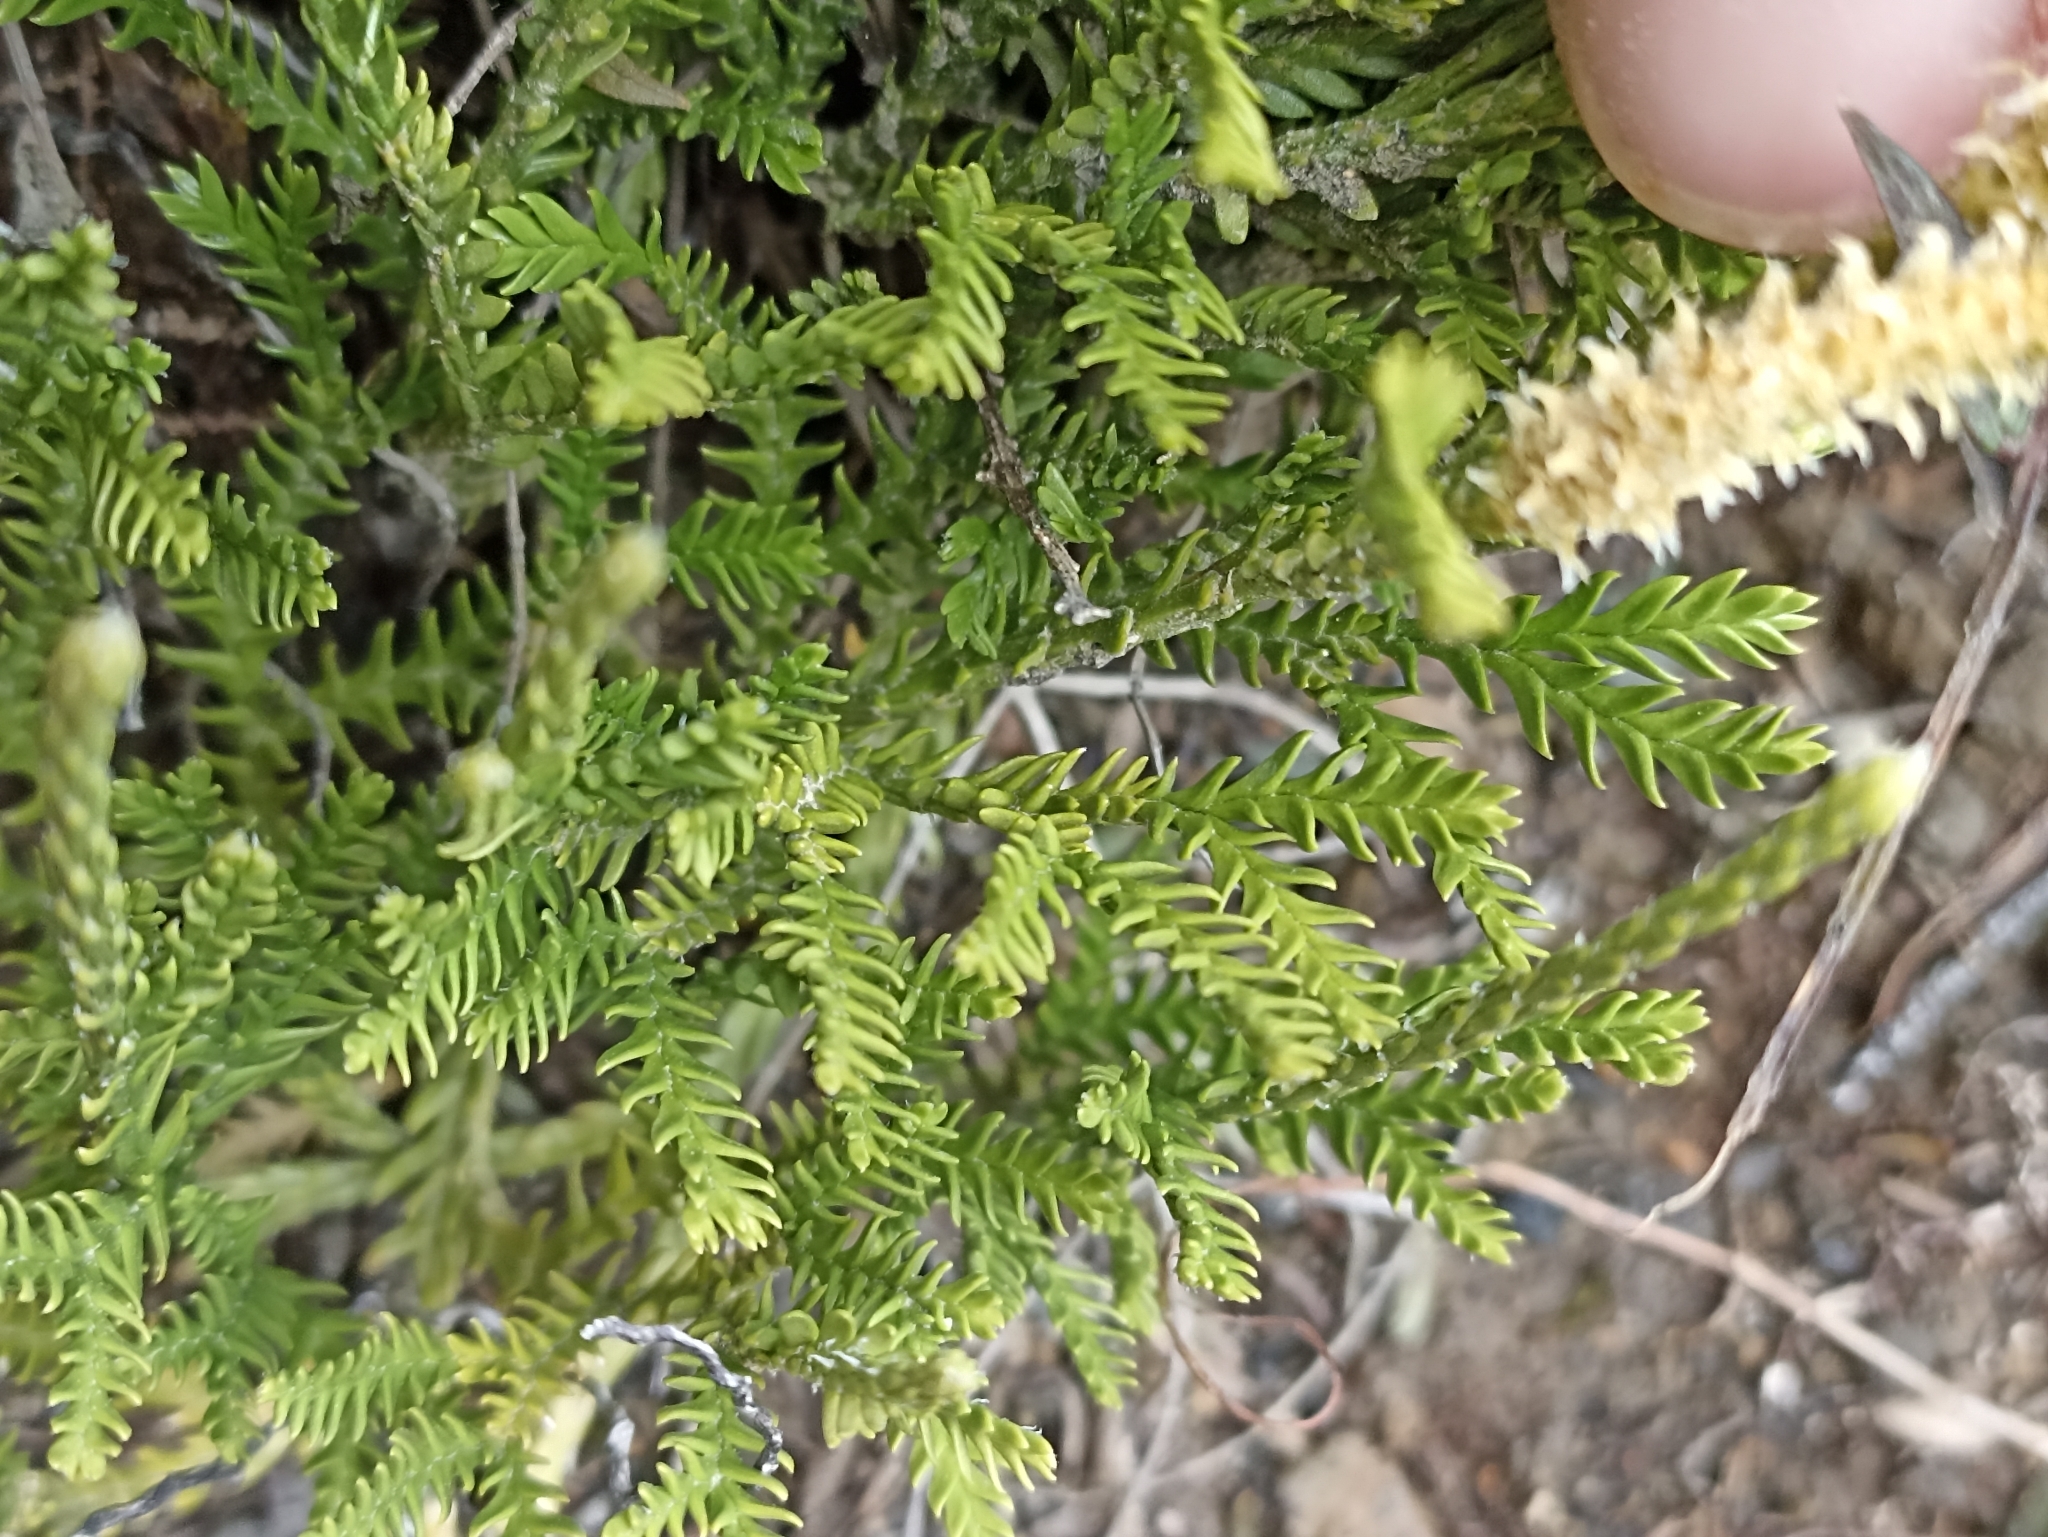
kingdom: Plantae
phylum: Tracheophyta
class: Lycopodiopsida
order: Lycopodiales
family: Lycopodiaceae
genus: Diphasium
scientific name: Diphasium scariosum
